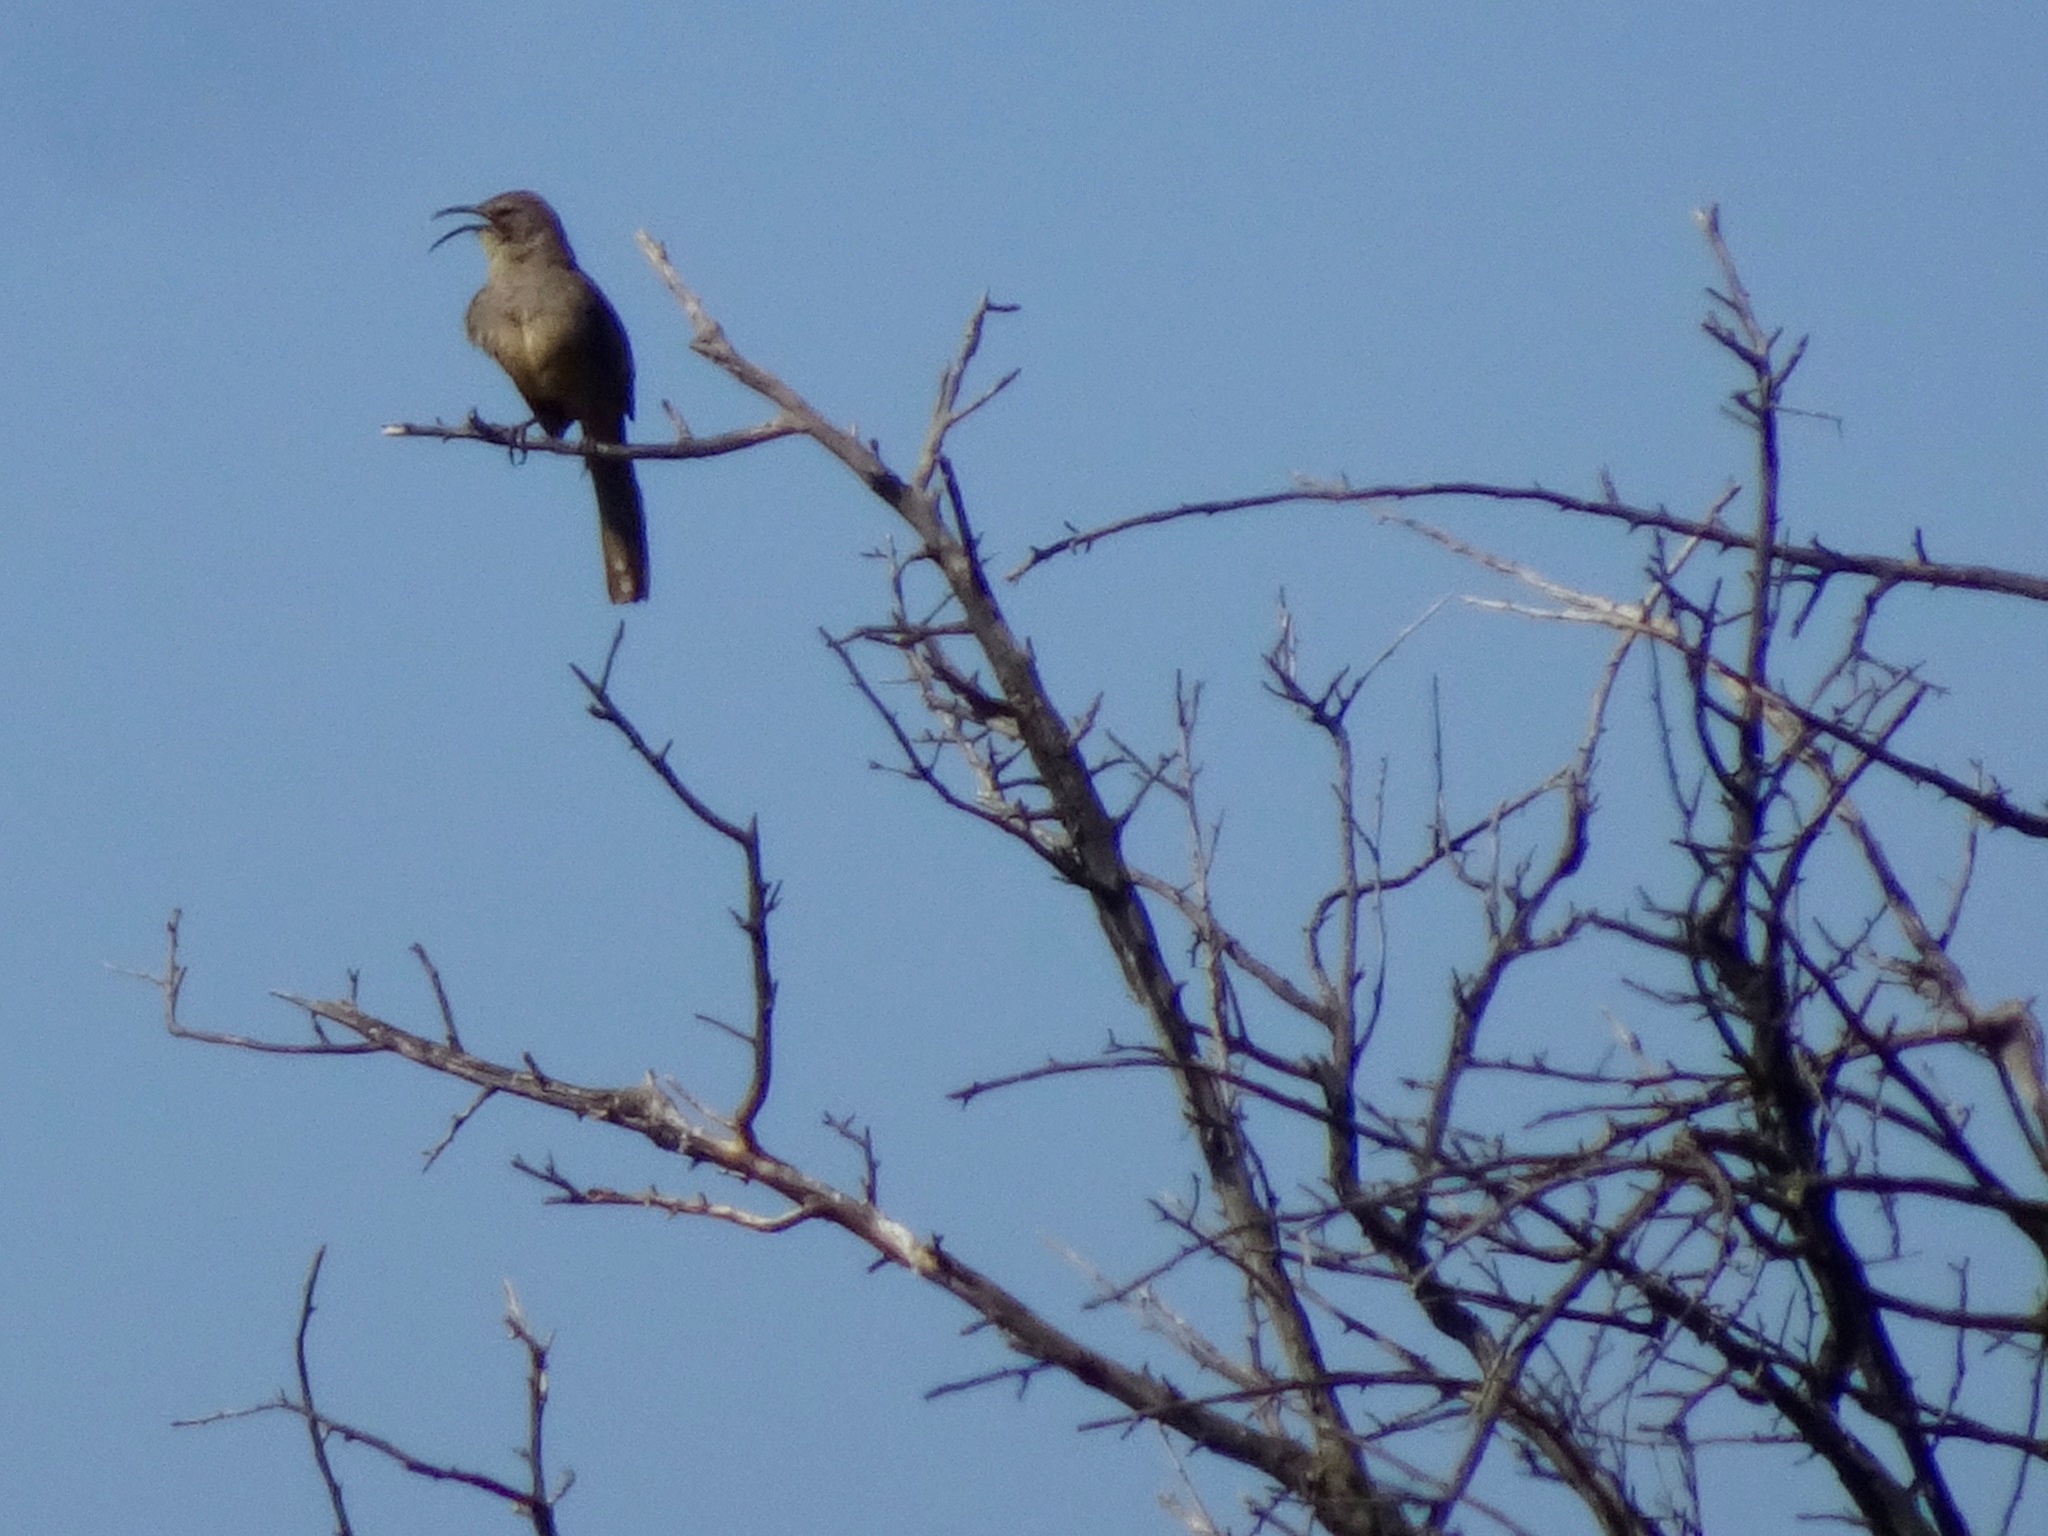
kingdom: Animalia
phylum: Chordata
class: Aves
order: Passeriformes
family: Mimidae
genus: Toxostoma
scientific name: Toxostoma redivivum
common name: California thrasher
